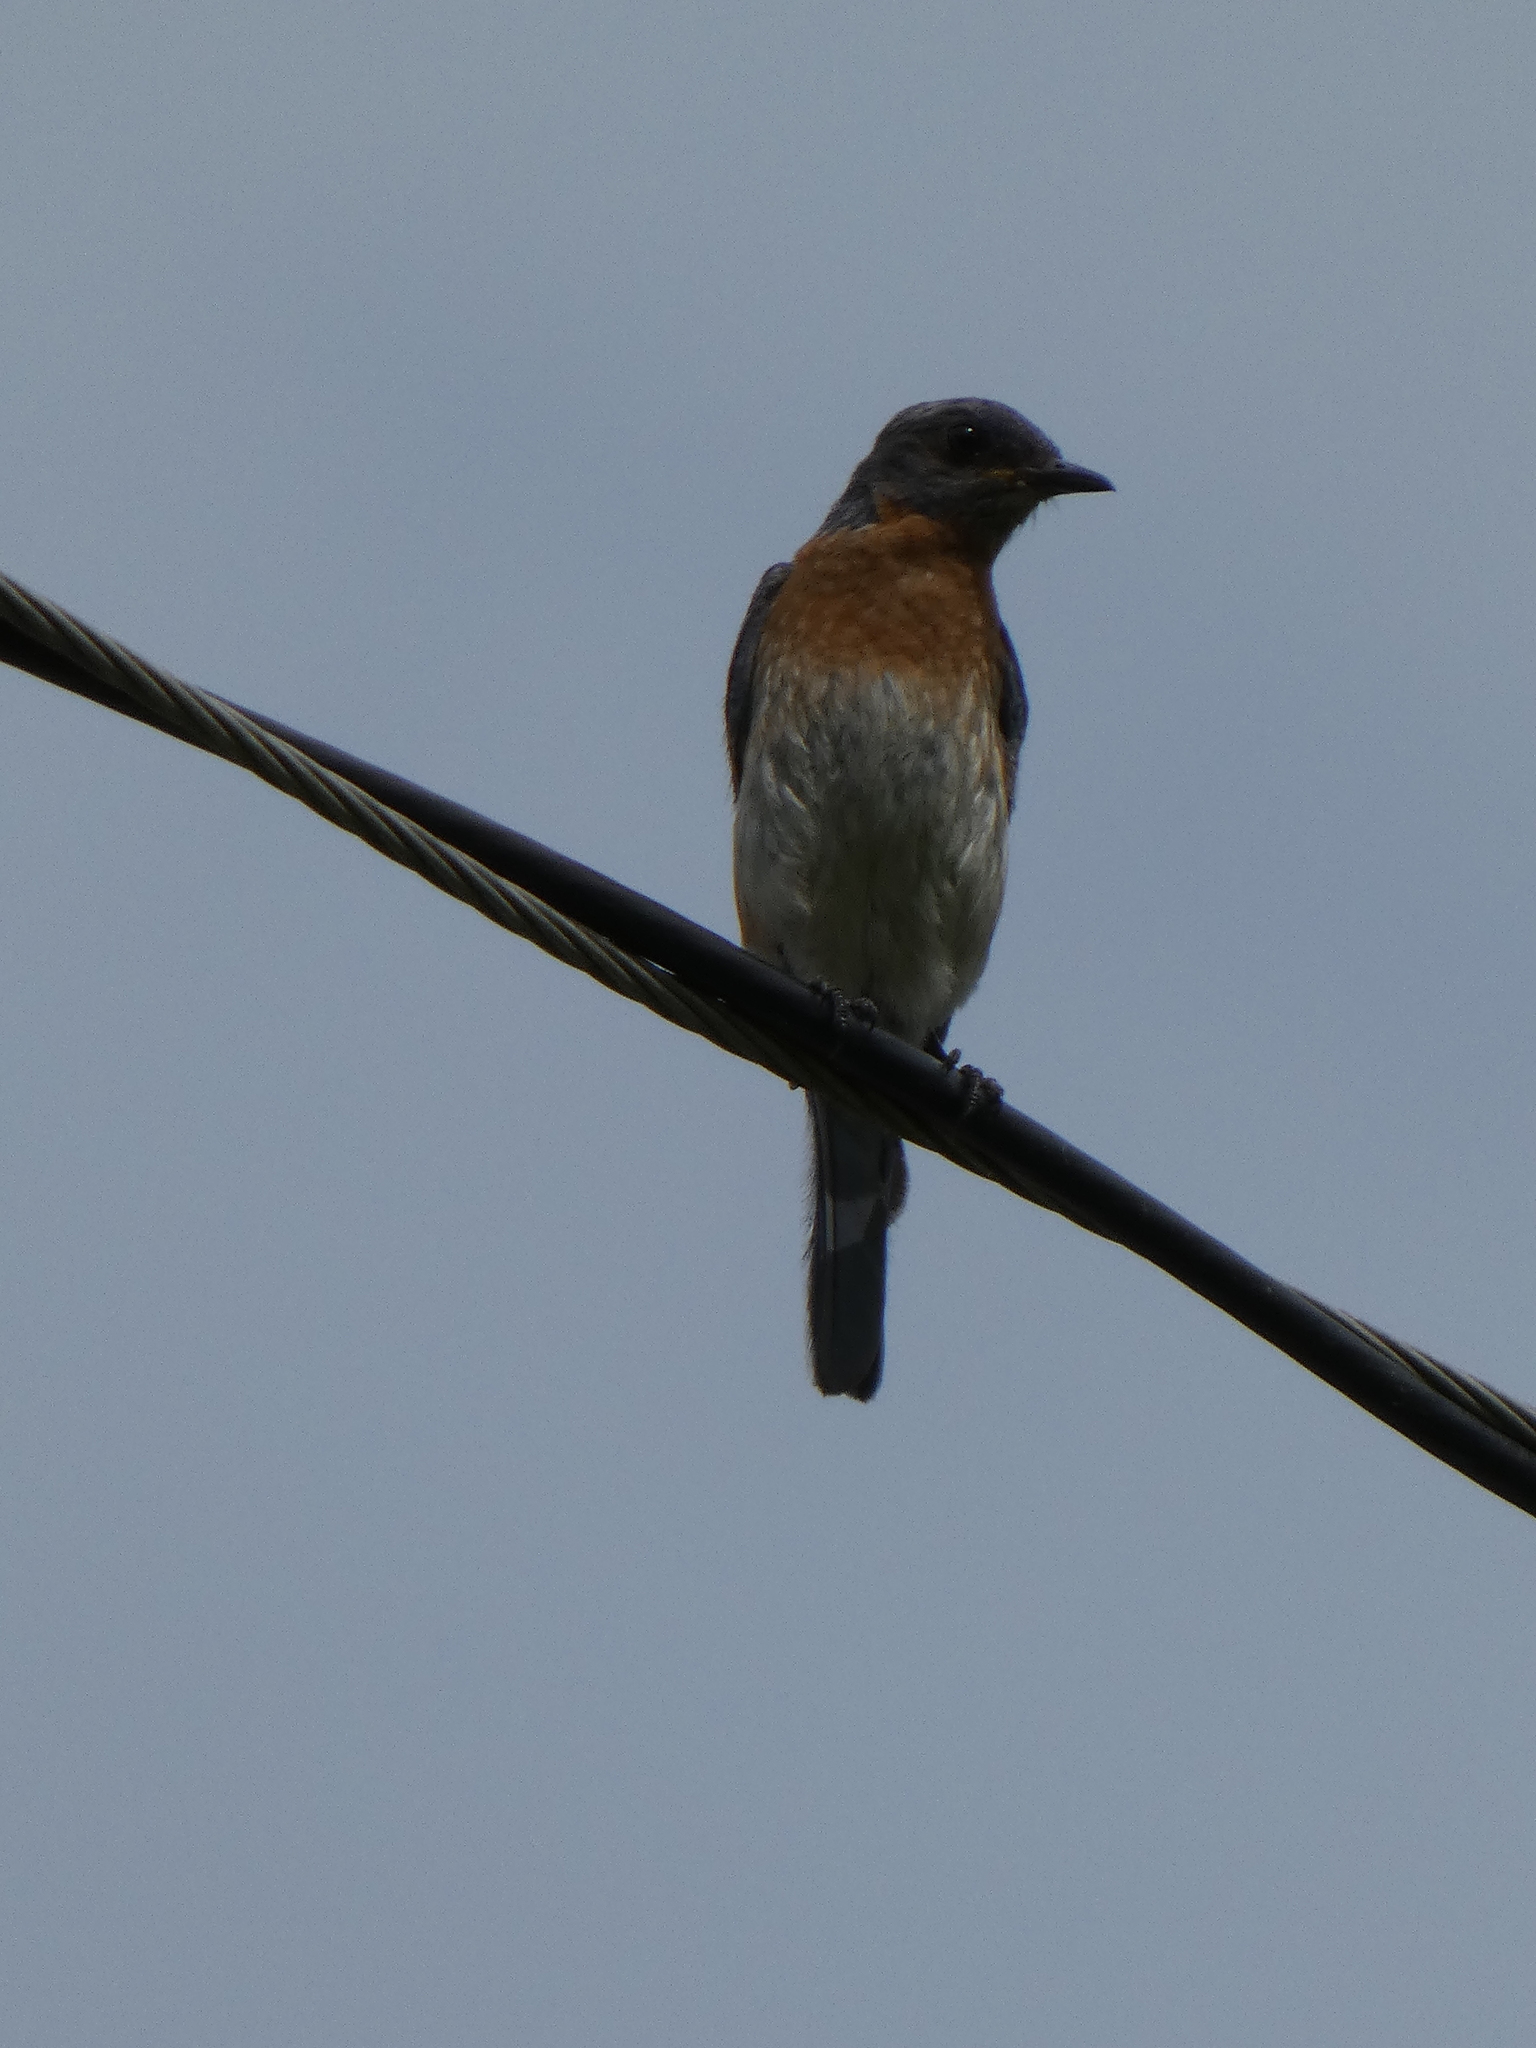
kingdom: Animalia
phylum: Chordata
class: Aves
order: Passeriformes
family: Turdidae
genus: Sialia
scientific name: Sialia sialis
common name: Eastern bluebird
